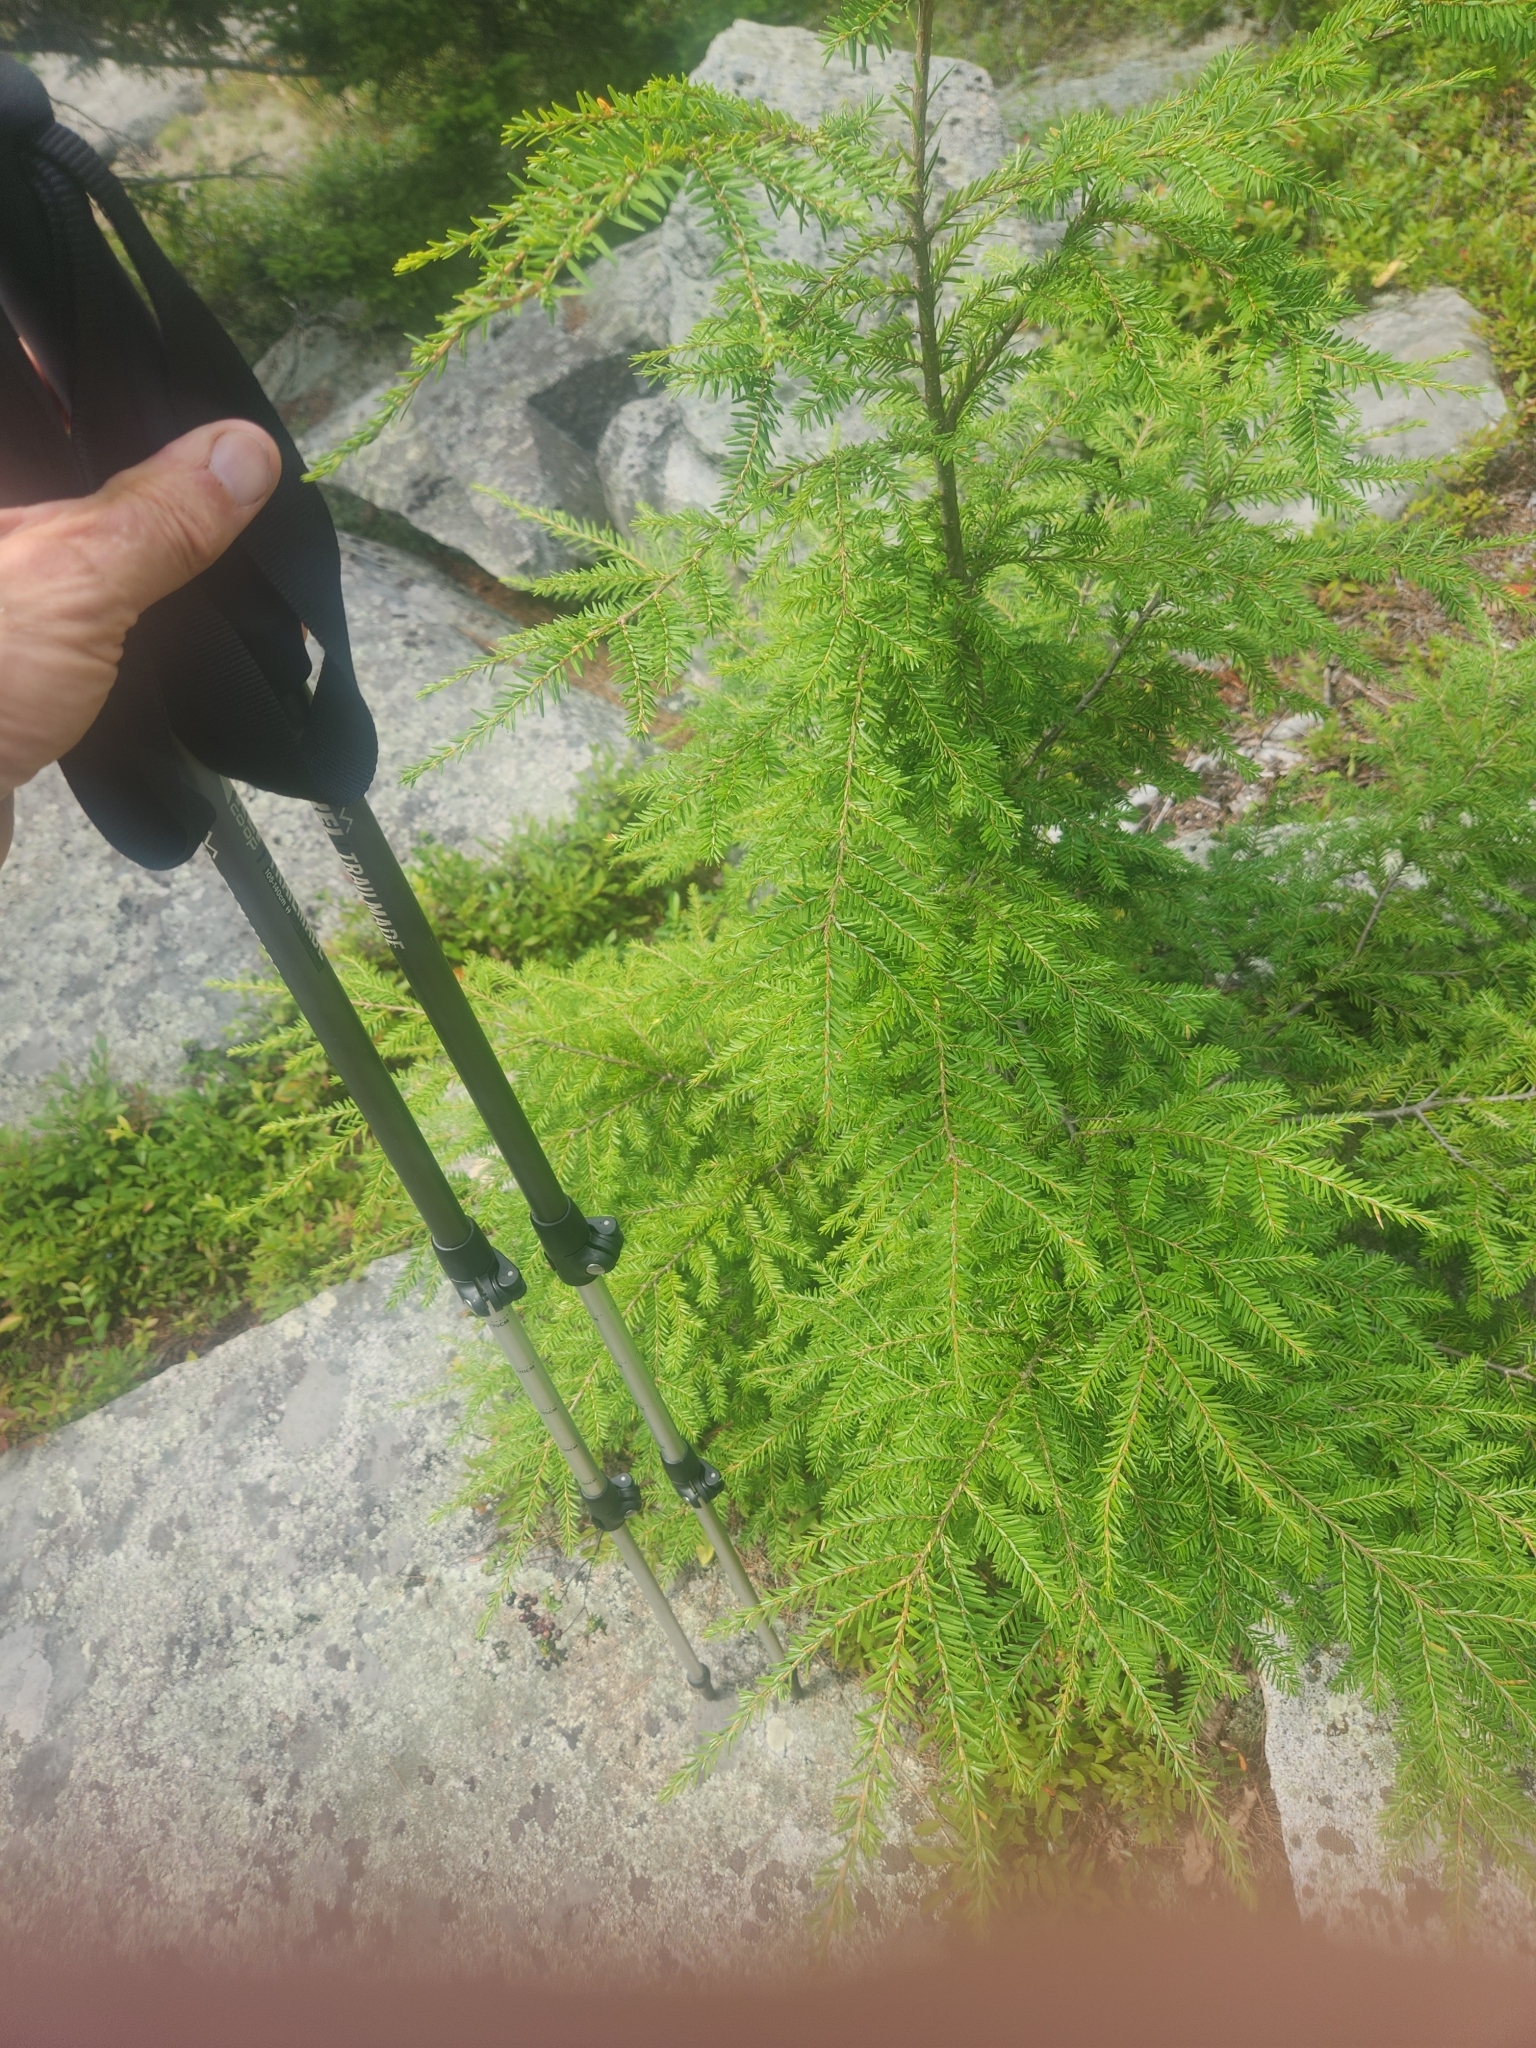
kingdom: Plantae
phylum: Tracheophyta
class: Pinopsida
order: Pinales
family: Pinaceae
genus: Tsuga
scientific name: Tsuga canadensis
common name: Eastern hemlock
